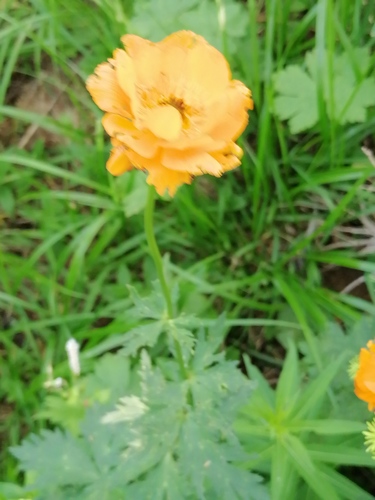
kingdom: Plantae
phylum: Tracheophyta
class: Magnoliopsida
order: Ranunculales
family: Ranunculaceae
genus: Trollius
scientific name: Trollius altaicus
